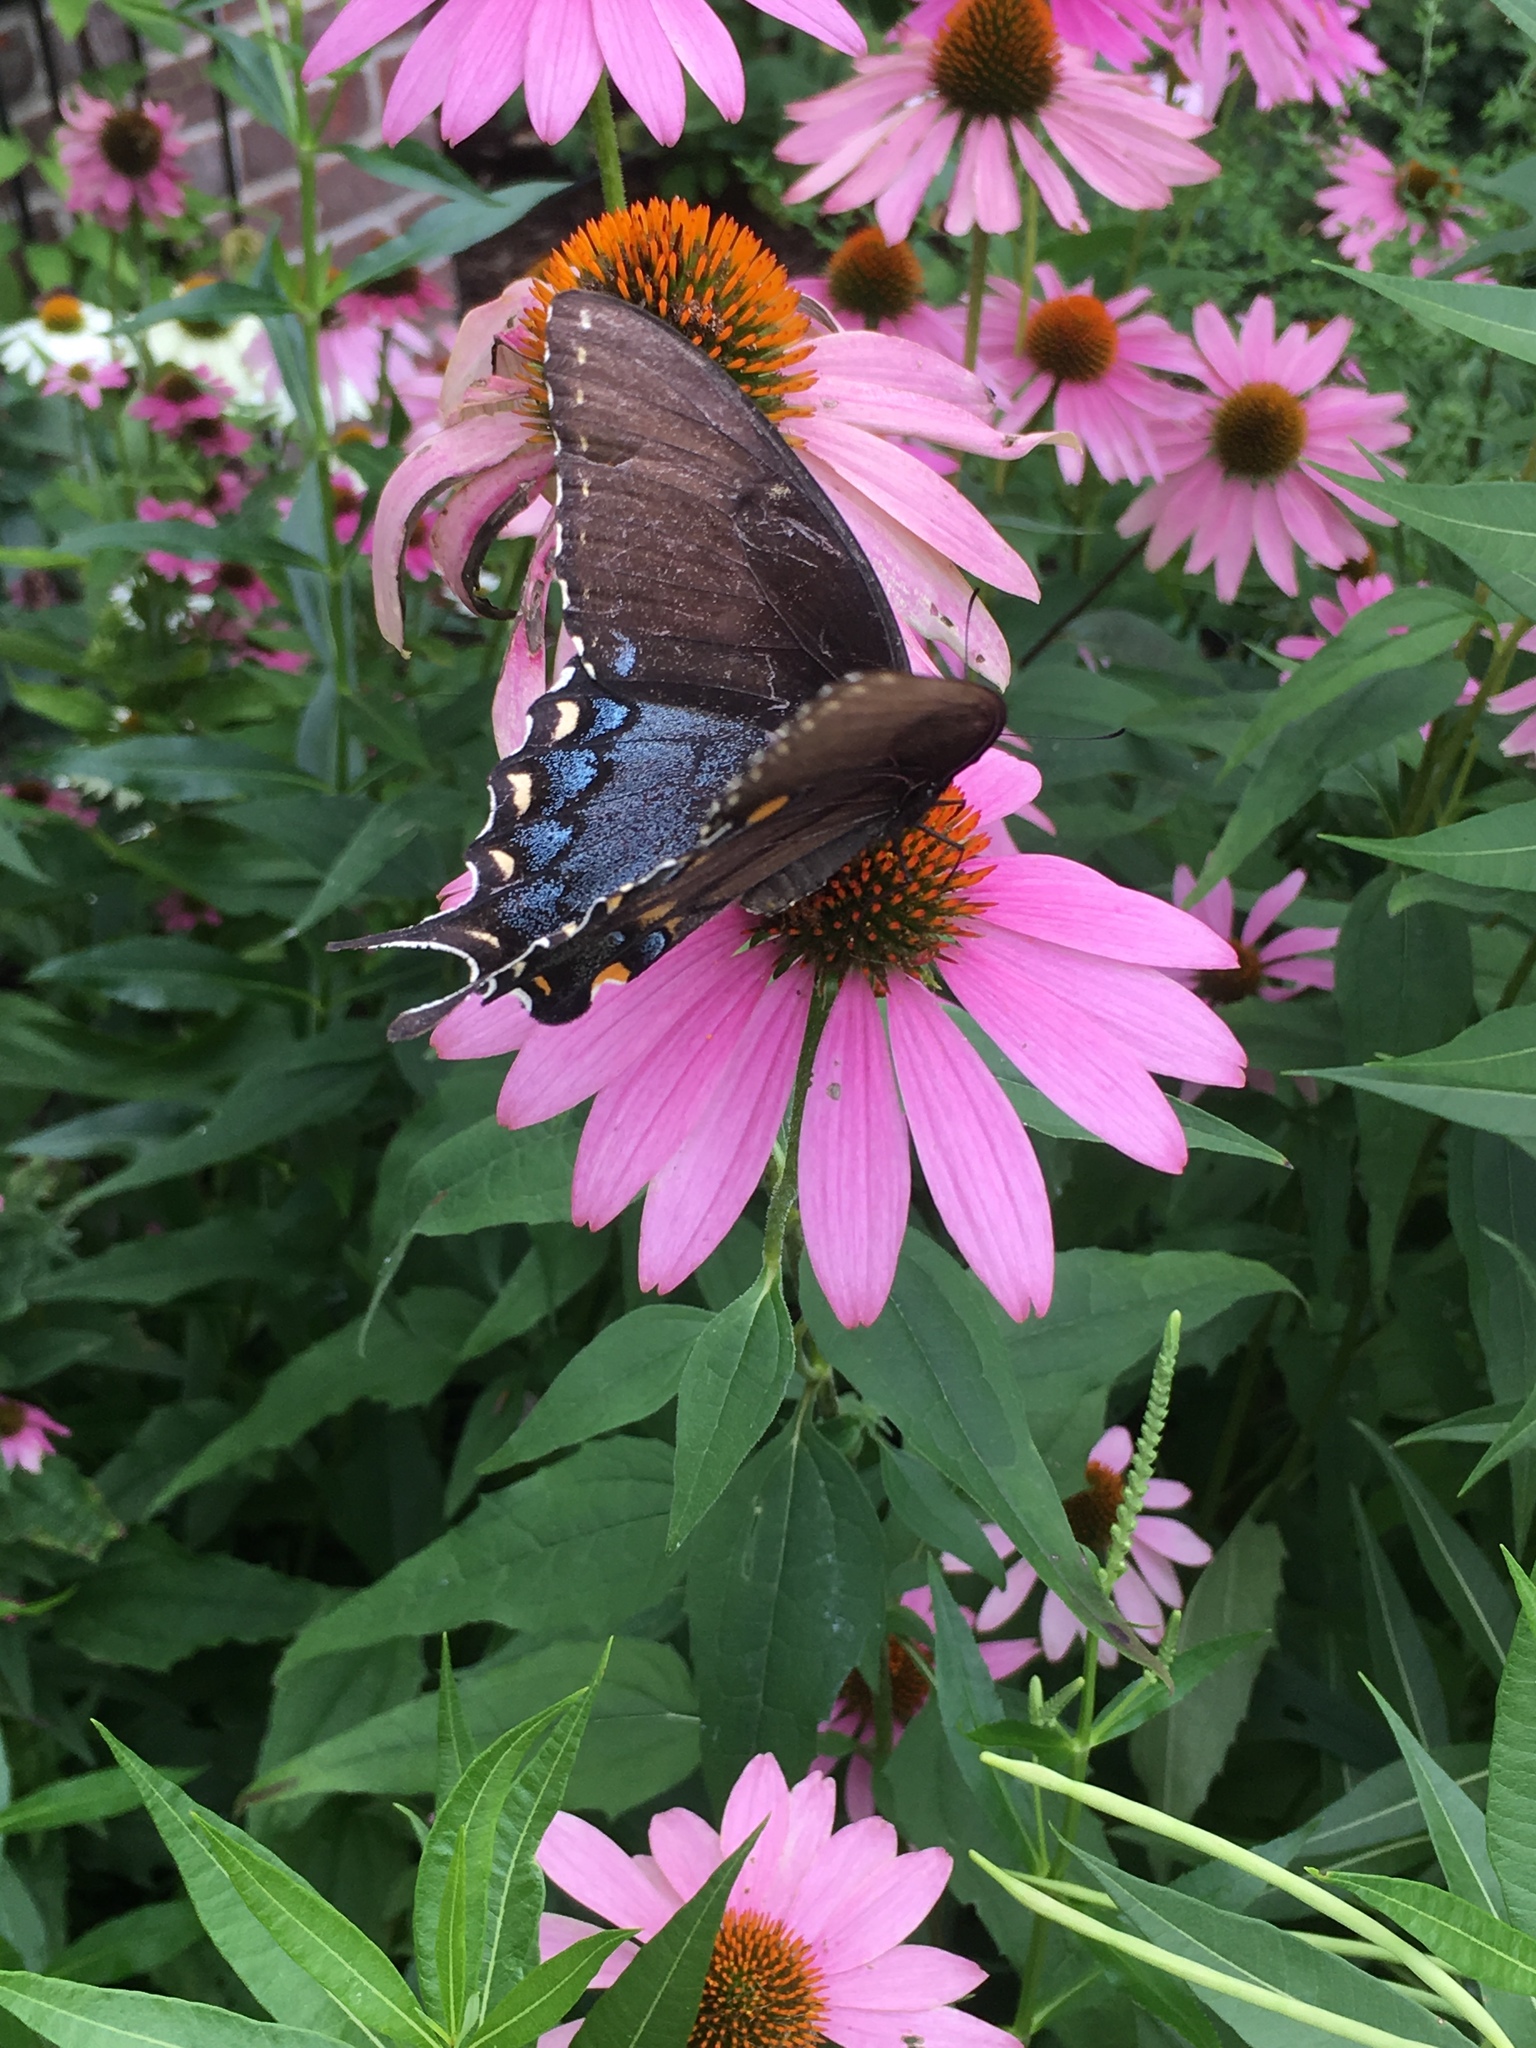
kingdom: Animalia
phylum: Arthropoda
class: Insecta
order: Lepidoptera
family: Papilionidae
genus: Papilio
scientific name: Papilio glaucus
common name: Tiger swallowtail
